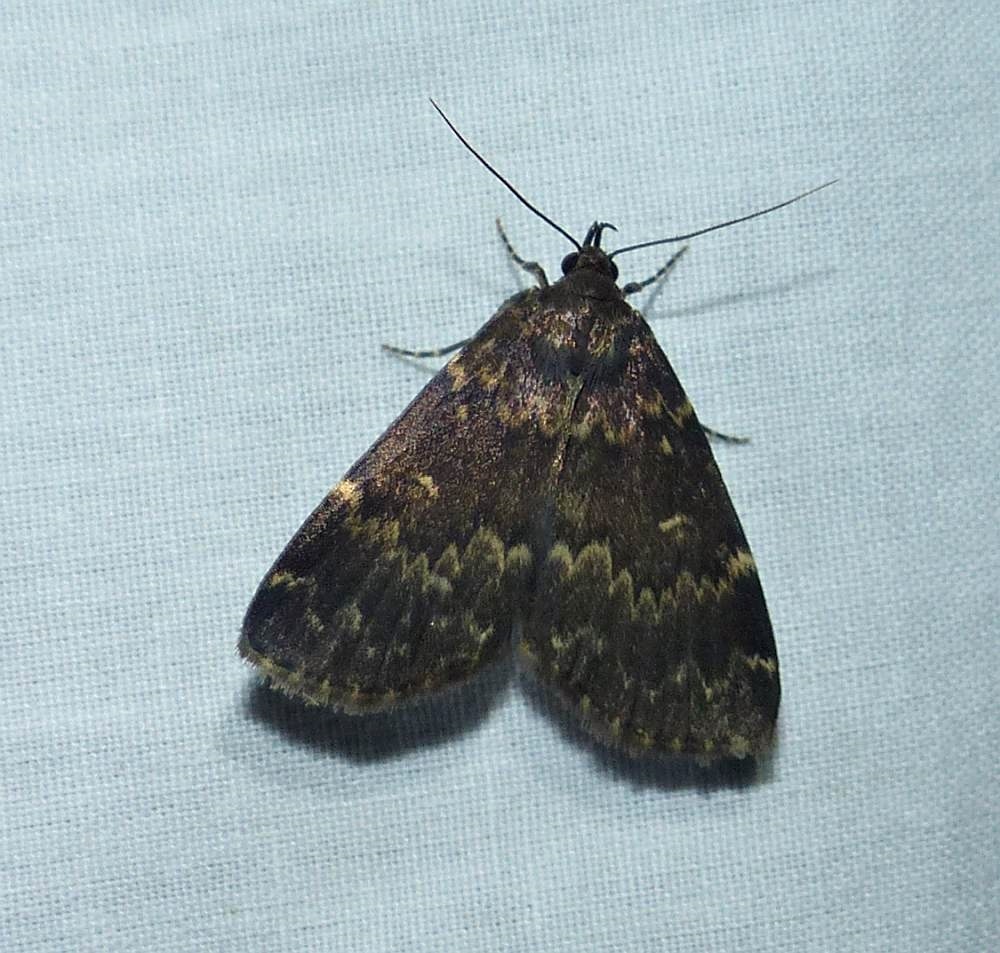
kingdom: Animalia
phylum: Arthropoda
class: Insecta
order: Lepidoptera
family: Erebidae
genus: Idia
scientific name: Idia lubricalis
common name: Twin-striped tabby
